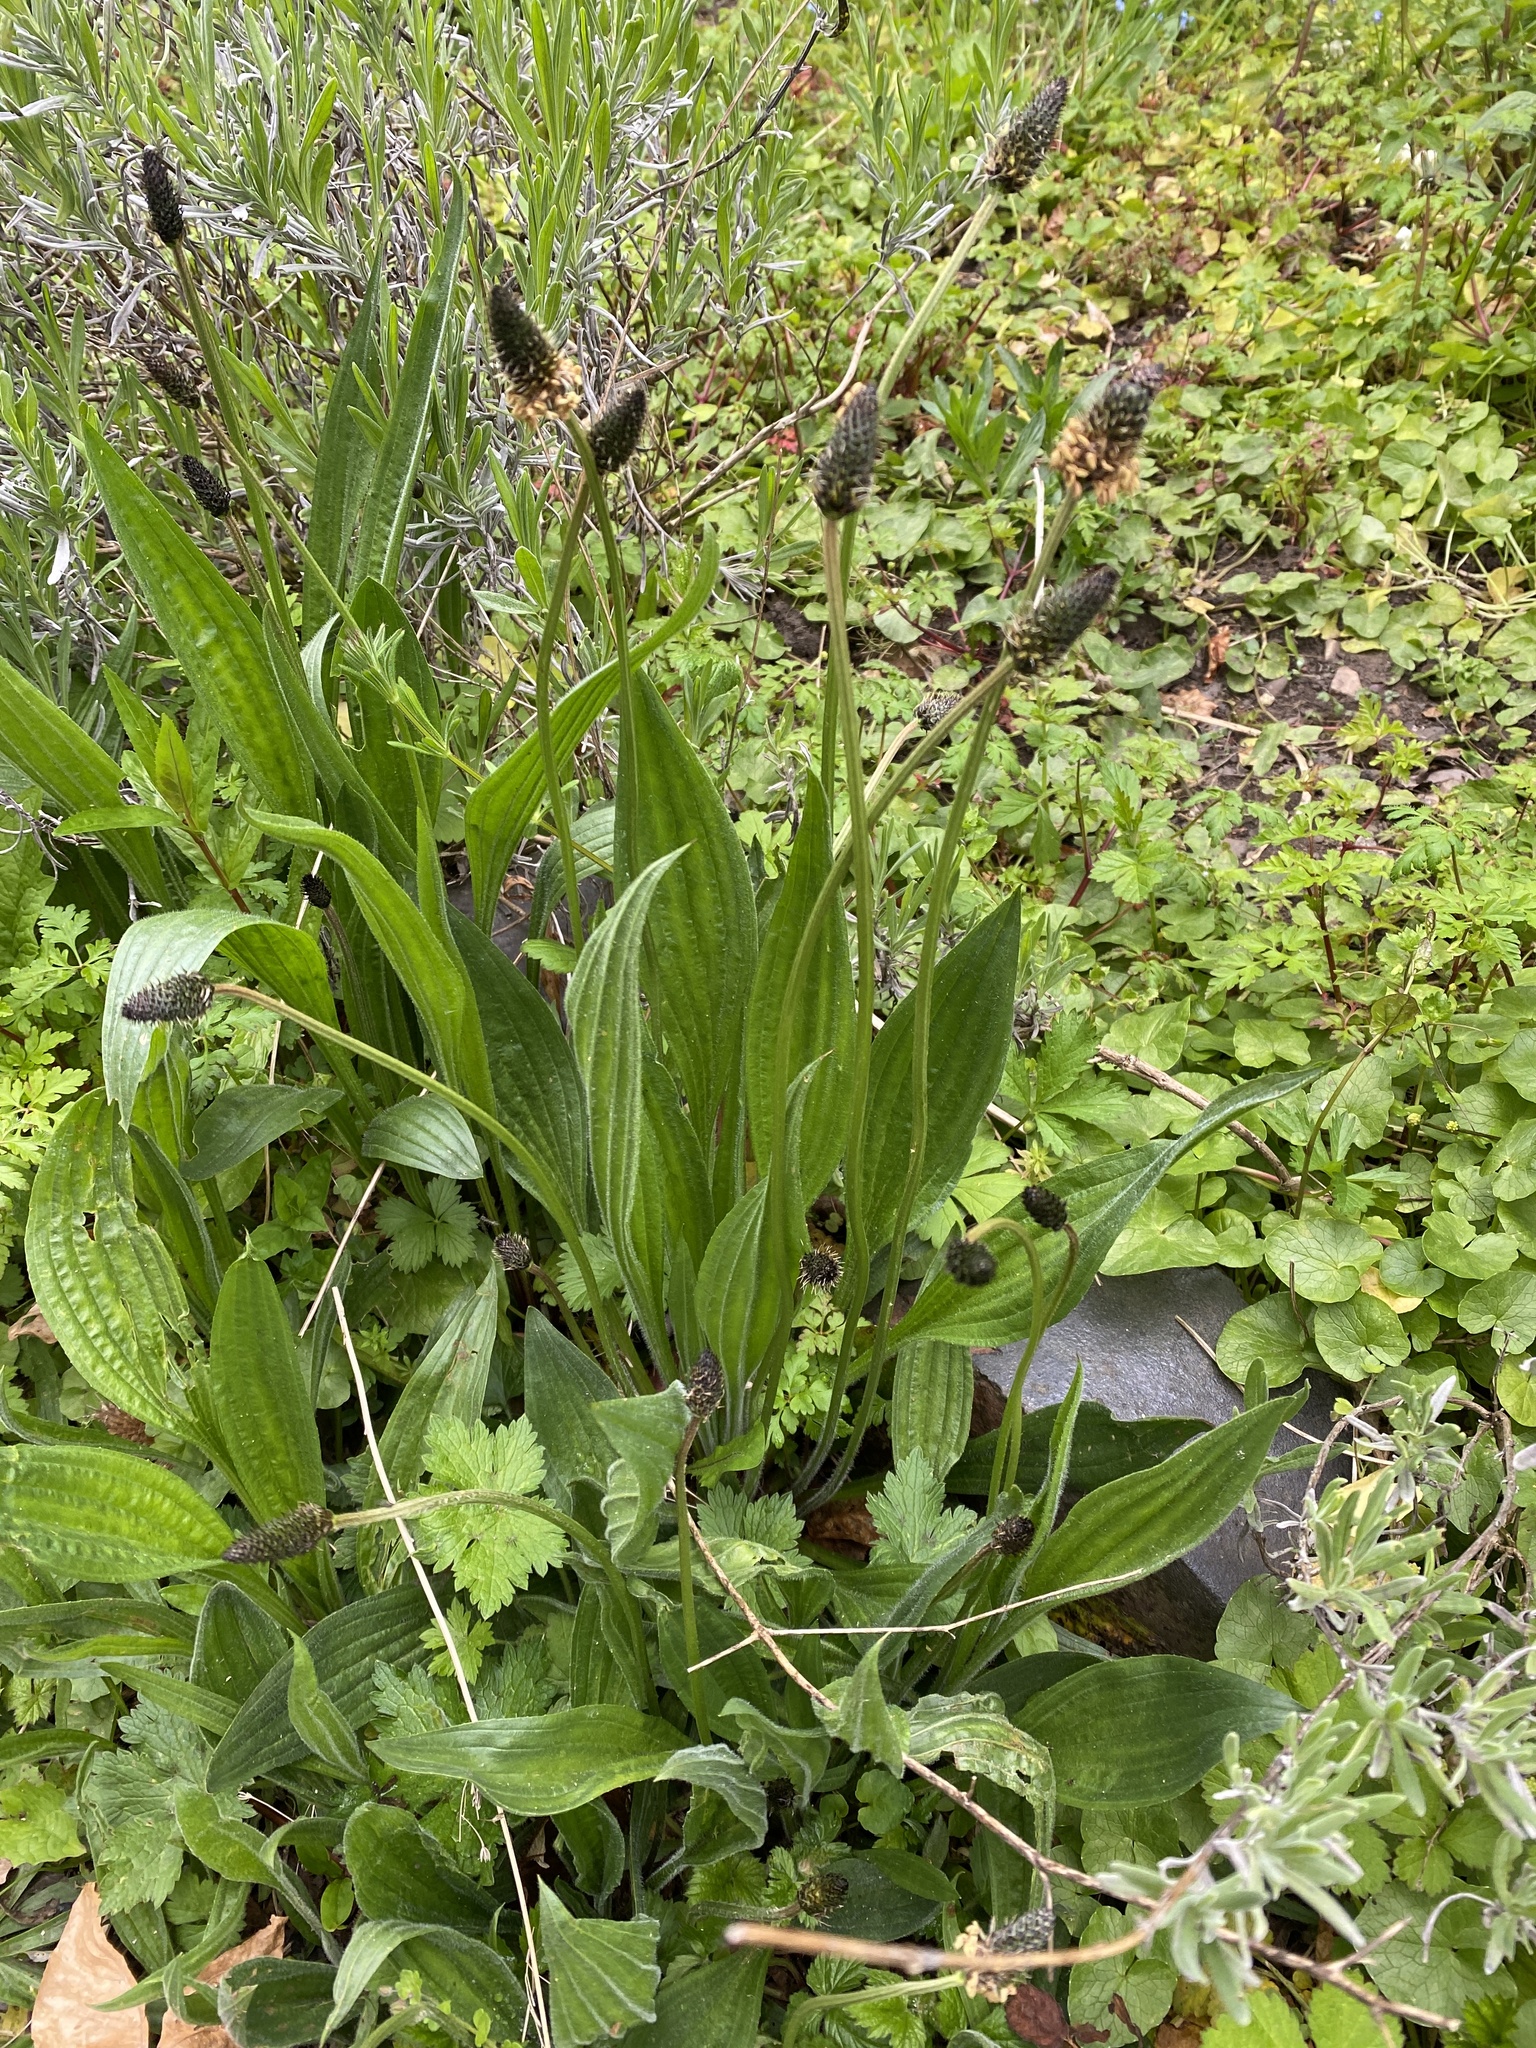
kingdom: Plantae
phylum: Tracheophyta
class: Magnoliopsida
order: Lamiales
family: Plantaginaceae
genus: Plantago
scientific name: Plantago lanceolata
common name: Ribwort plantain
